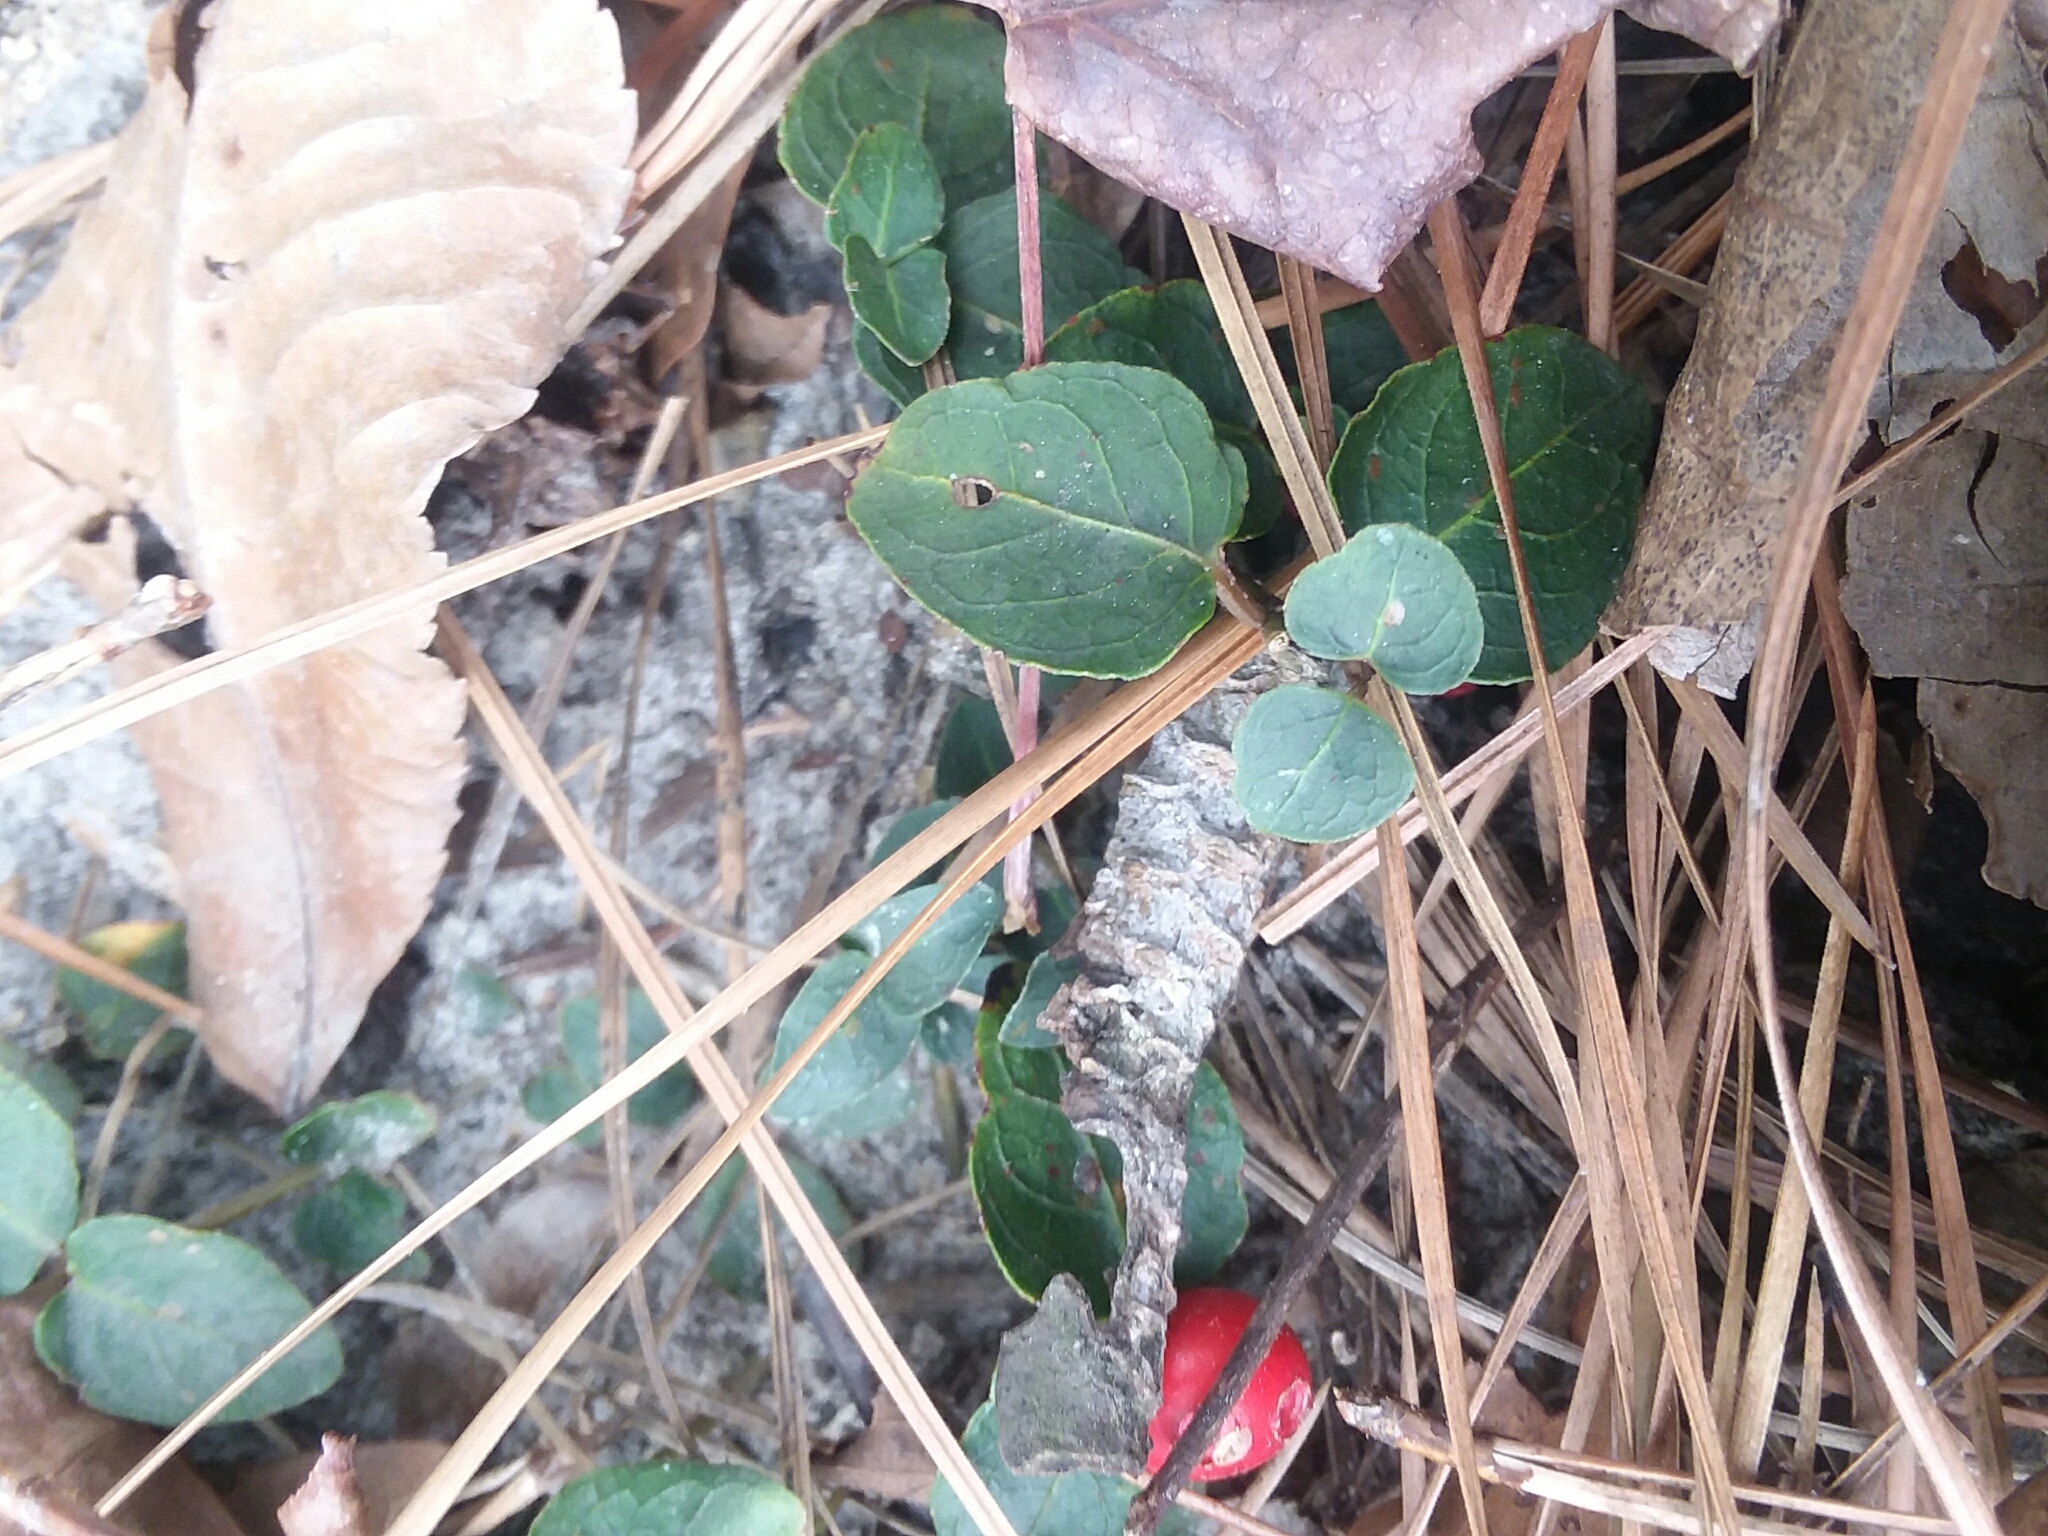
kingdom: Plantae
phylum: Tracheophyta
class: Magnoliopsida
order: Gentianales
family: Rubiaceae
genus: Mitchella
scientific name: Mitchella repens
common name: Partridge-berry
